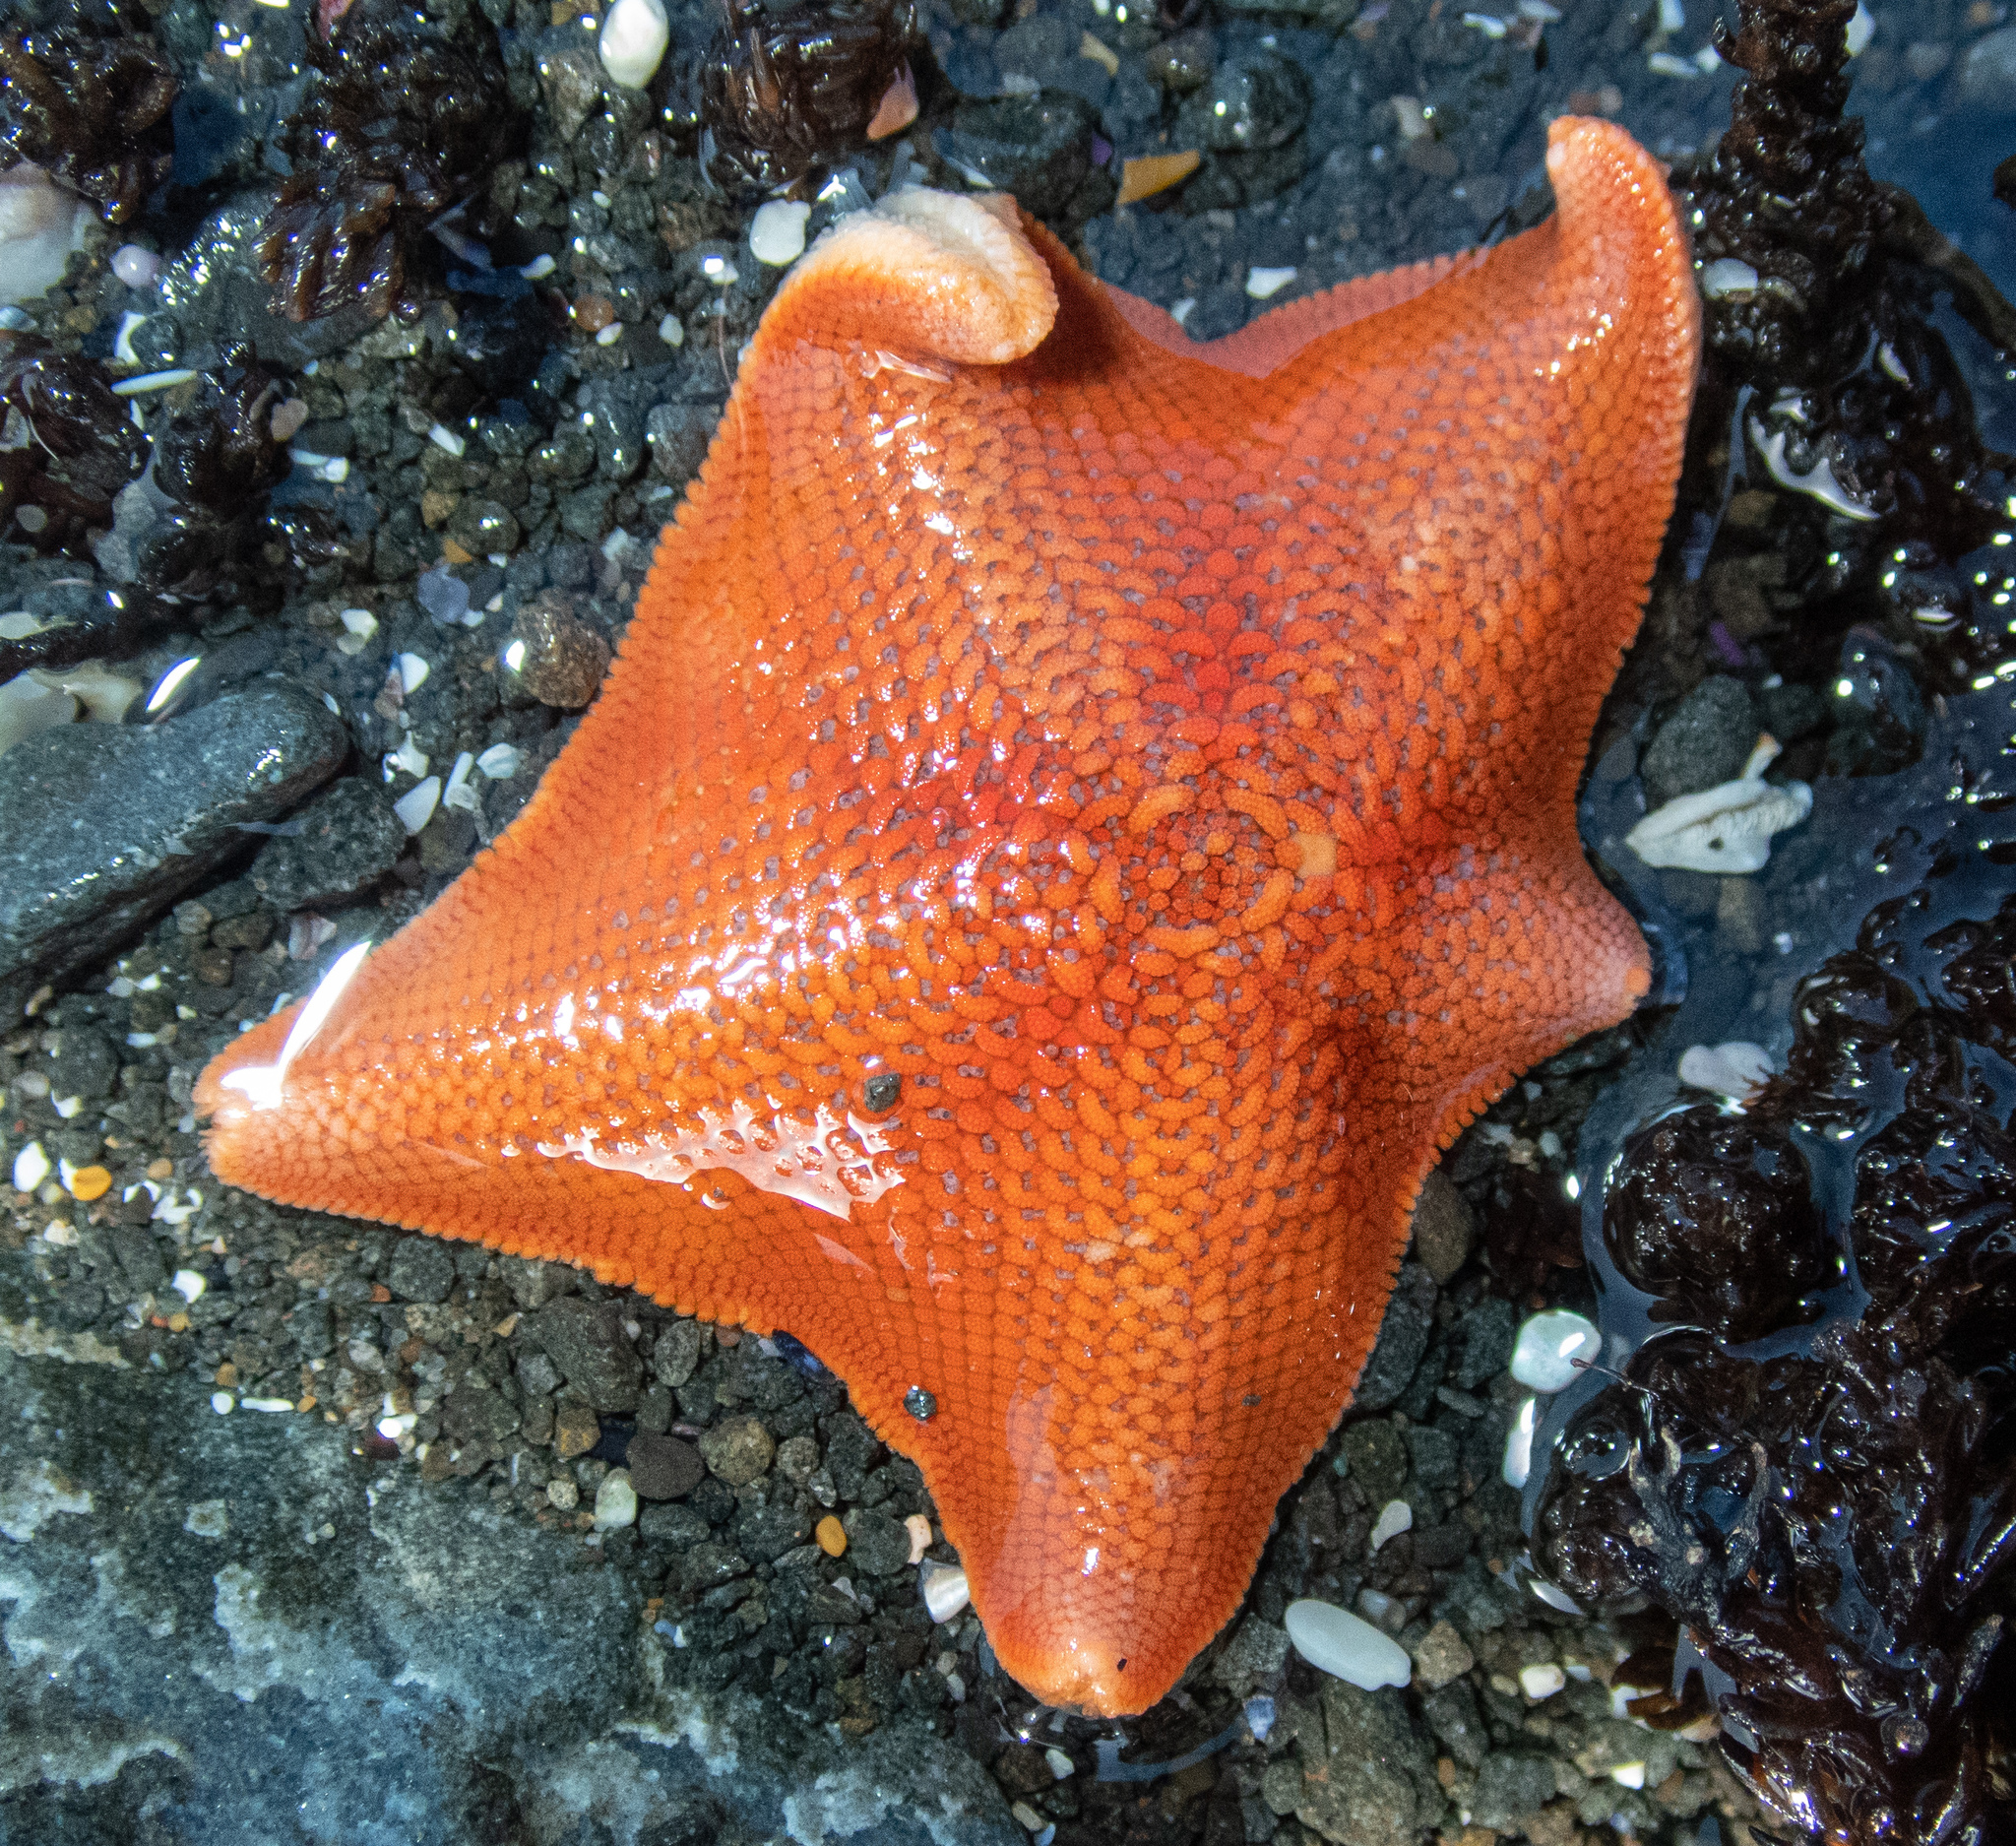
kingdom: Animalia
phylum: Echinodermata
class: Asteroidea
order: Valvatida
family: Asterinidae
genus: Patiria
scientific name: Patiria miniata
